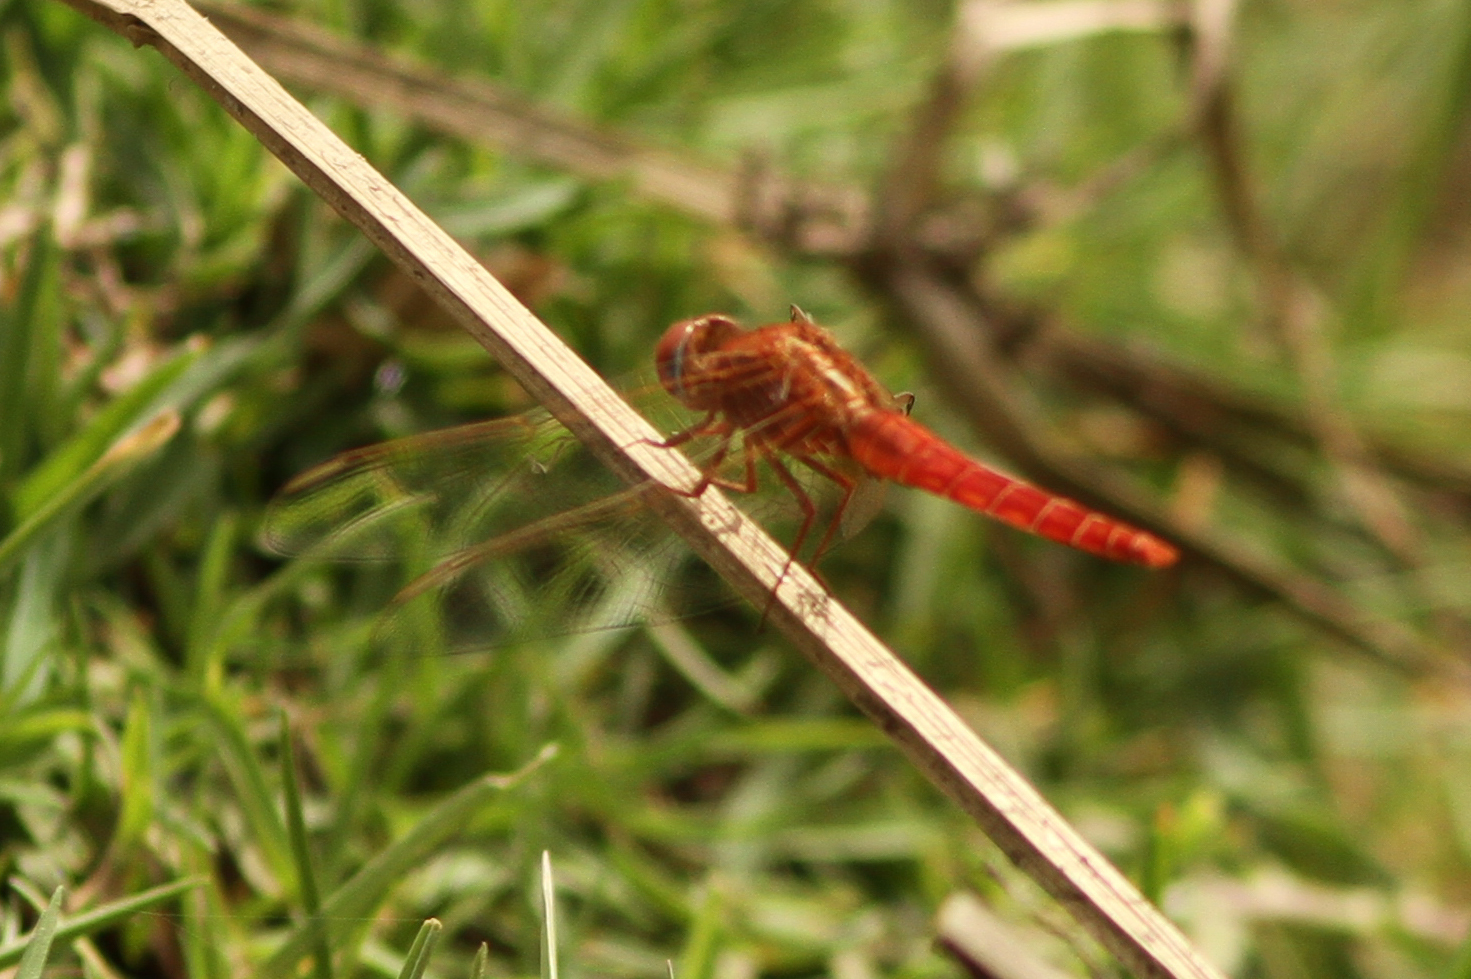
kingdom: Animalia
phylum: Arthropoda
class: Insecta
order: Odonata
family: Libellulidae
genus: Crocothemis
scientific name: Crocothemis erythraea
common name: Scarlet dragonfly
